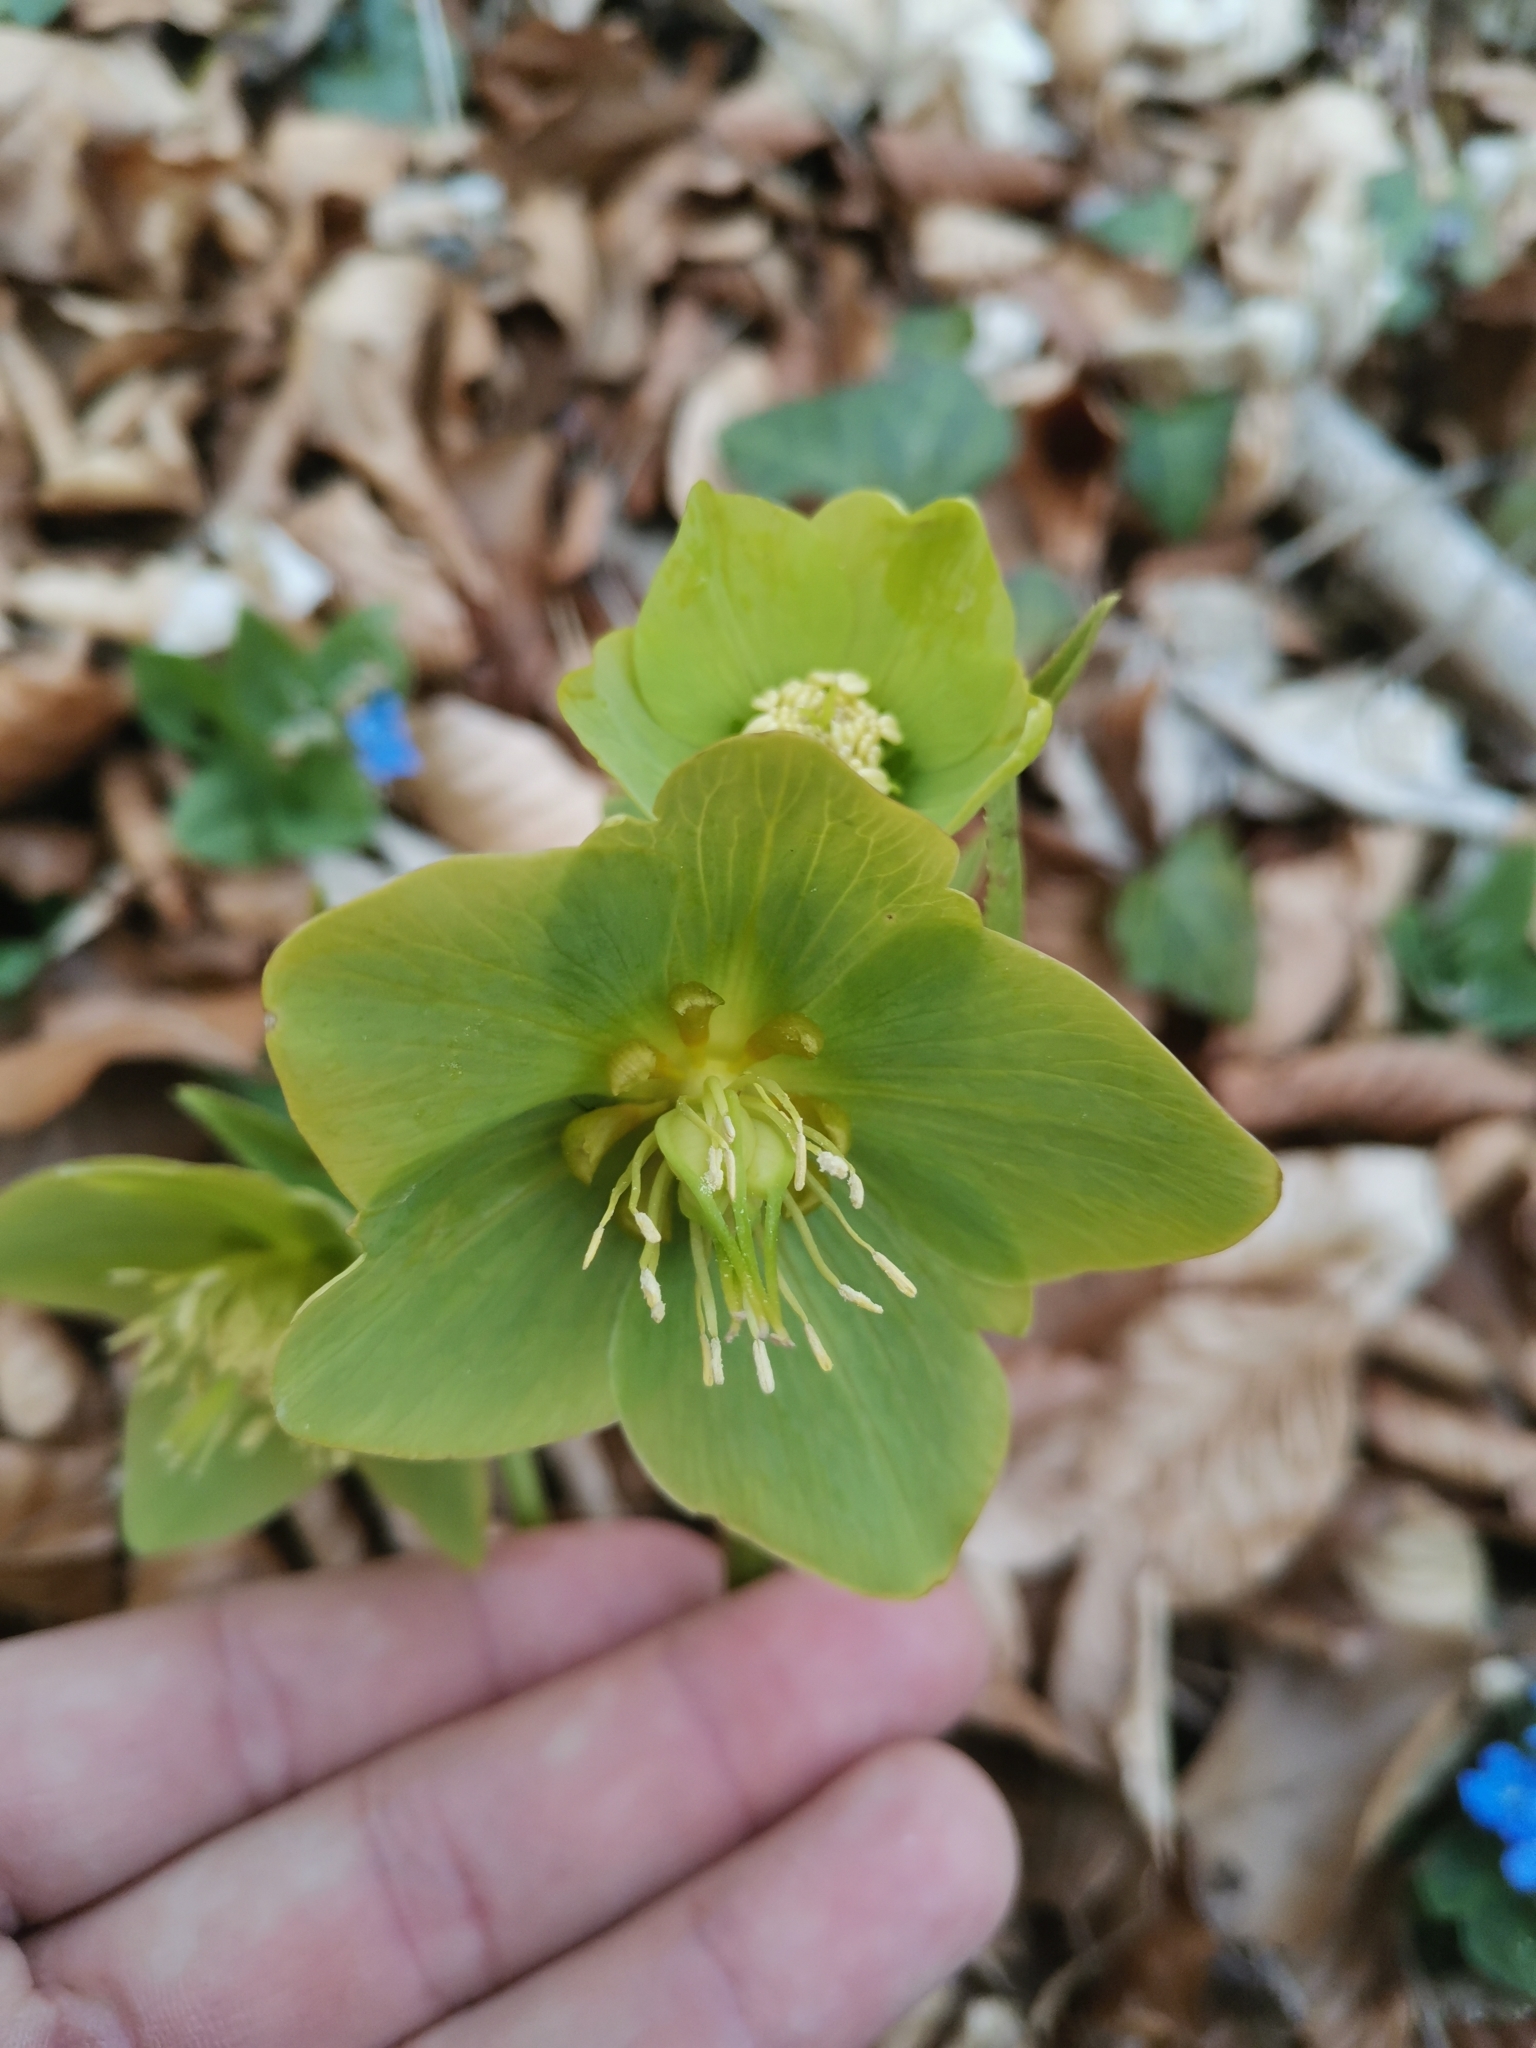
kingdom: Plantae
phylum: Tracheophyta
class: Magnoliopsida
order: Ranunculales
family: Ranunculaceae
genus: Helleborus
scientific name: Helleborus odorus
